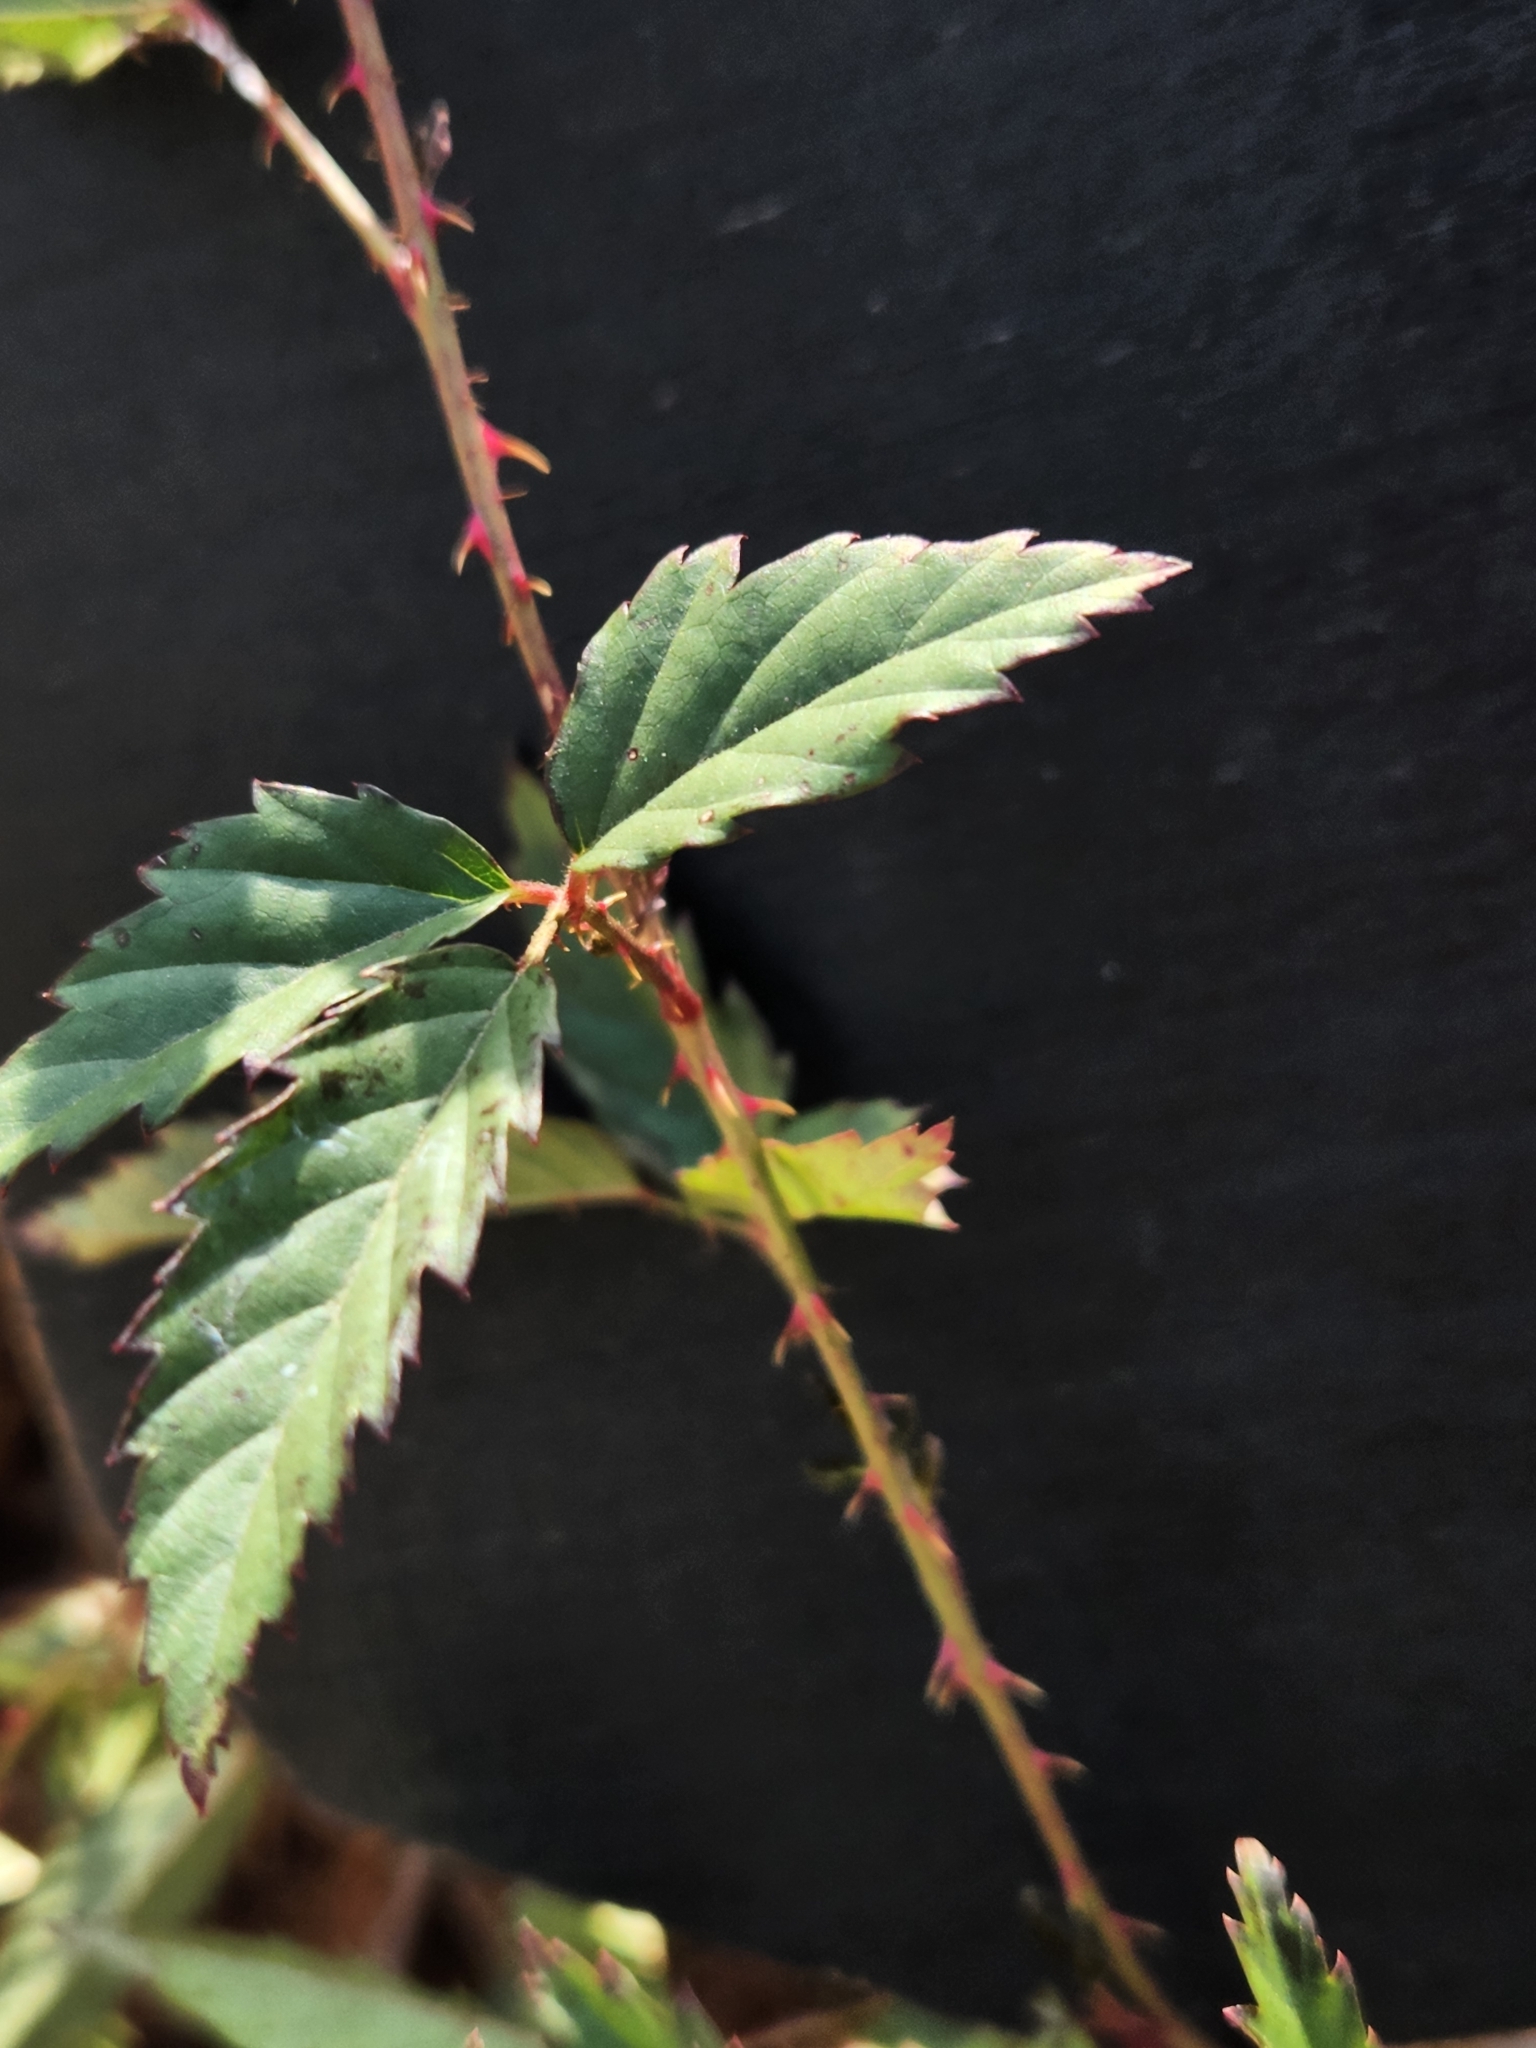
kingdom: Plantae
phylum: Tracheophyta
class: Magnoliopsida
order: Rosales
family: Rosaceae
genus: Rubus
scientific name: Rubus trivialis
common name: Southern dewberry
